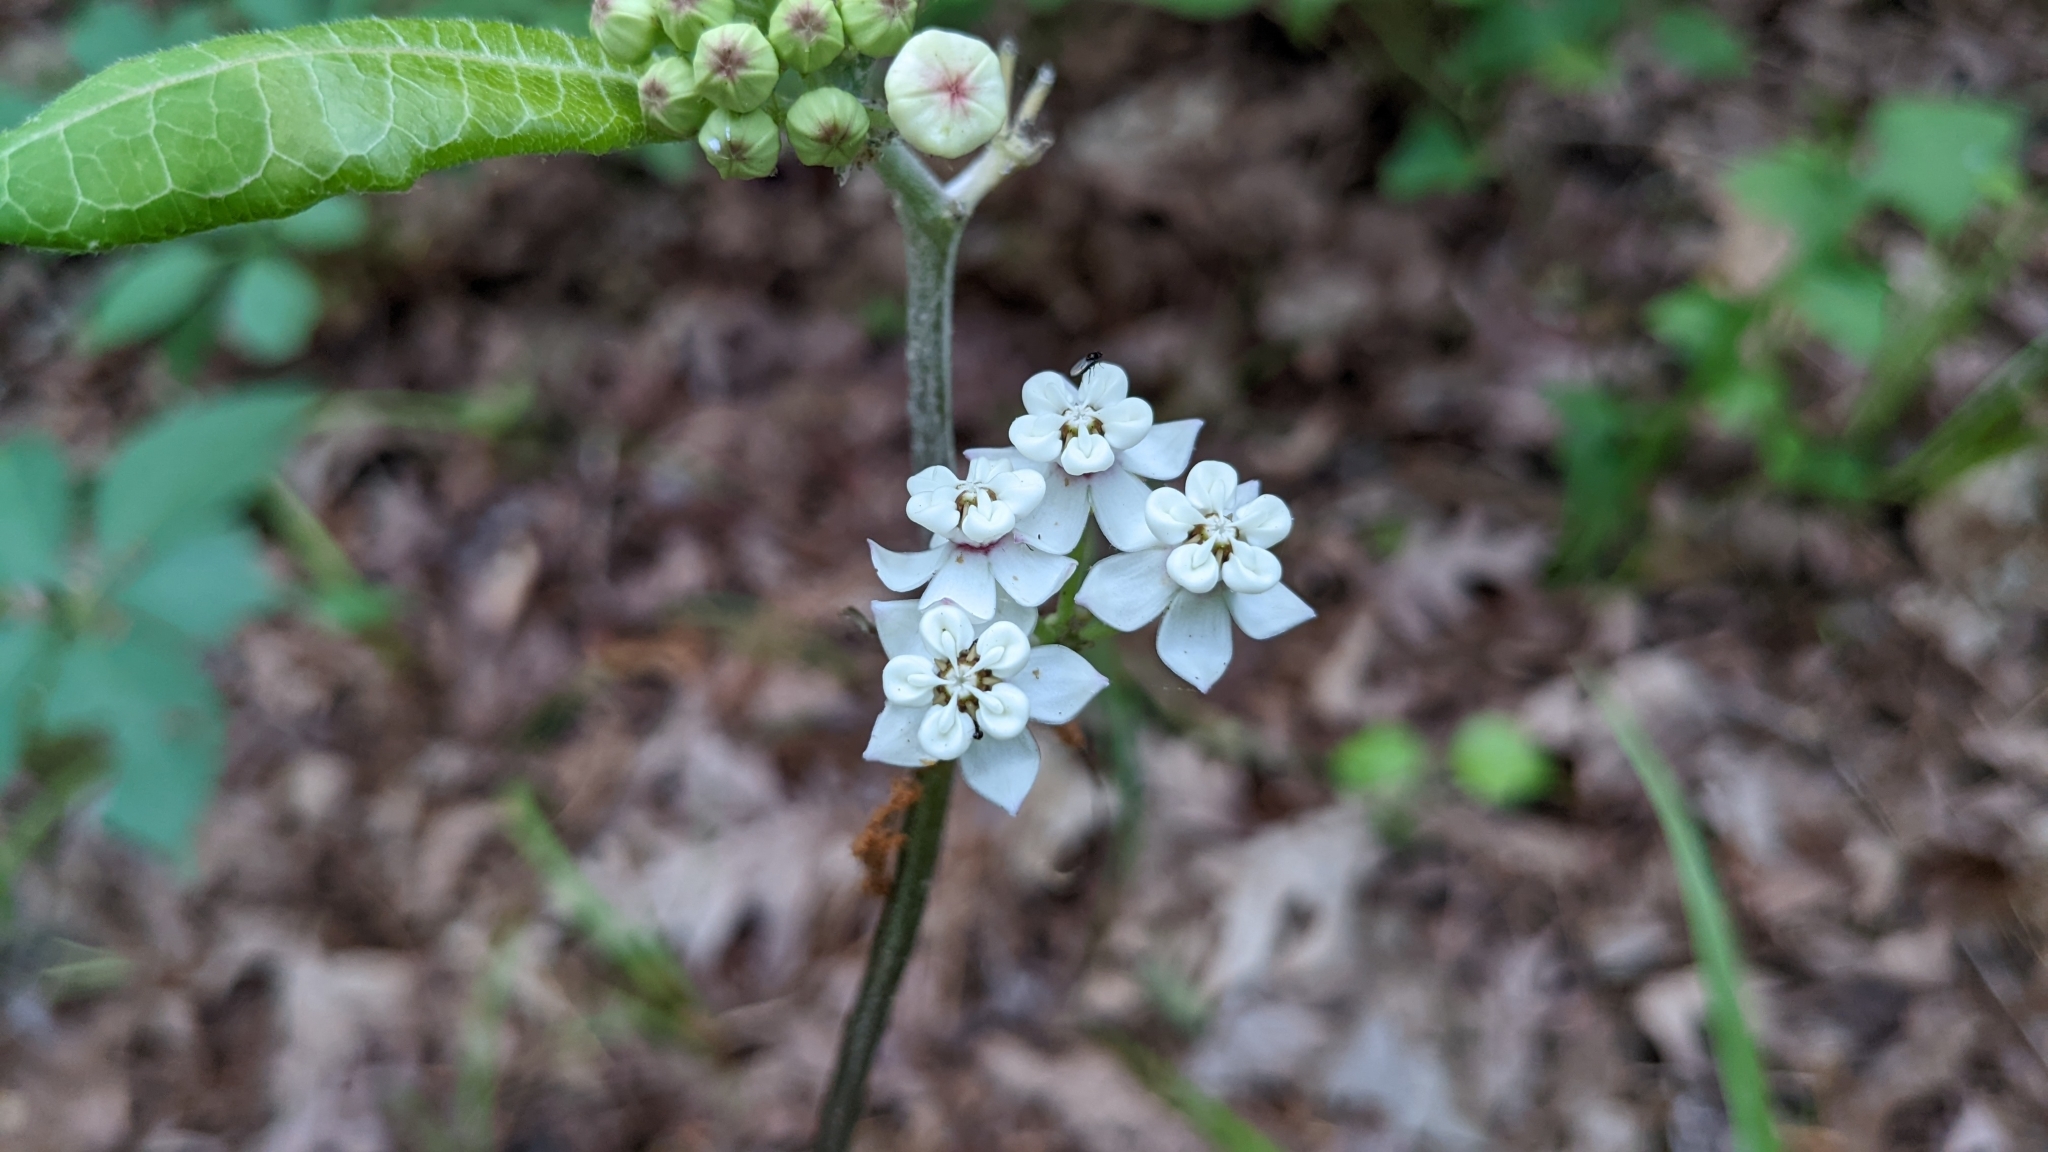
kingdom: Plantae
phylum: Tracheophyta
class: Magnoliopsida
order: Gentianales
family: Apocynaceae
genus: Asclepias
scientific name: Asclepias variegata
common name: Variegated milkweed
